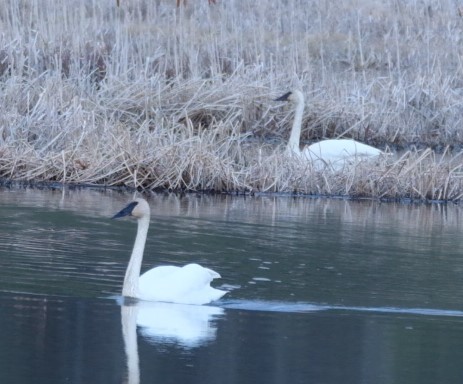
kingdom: Animalia
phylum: Chordata
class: Aves
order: Anseriformes
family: Anatidae
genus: Cygnus
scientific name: Cygnus buccinator
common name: Trumpeter swan
